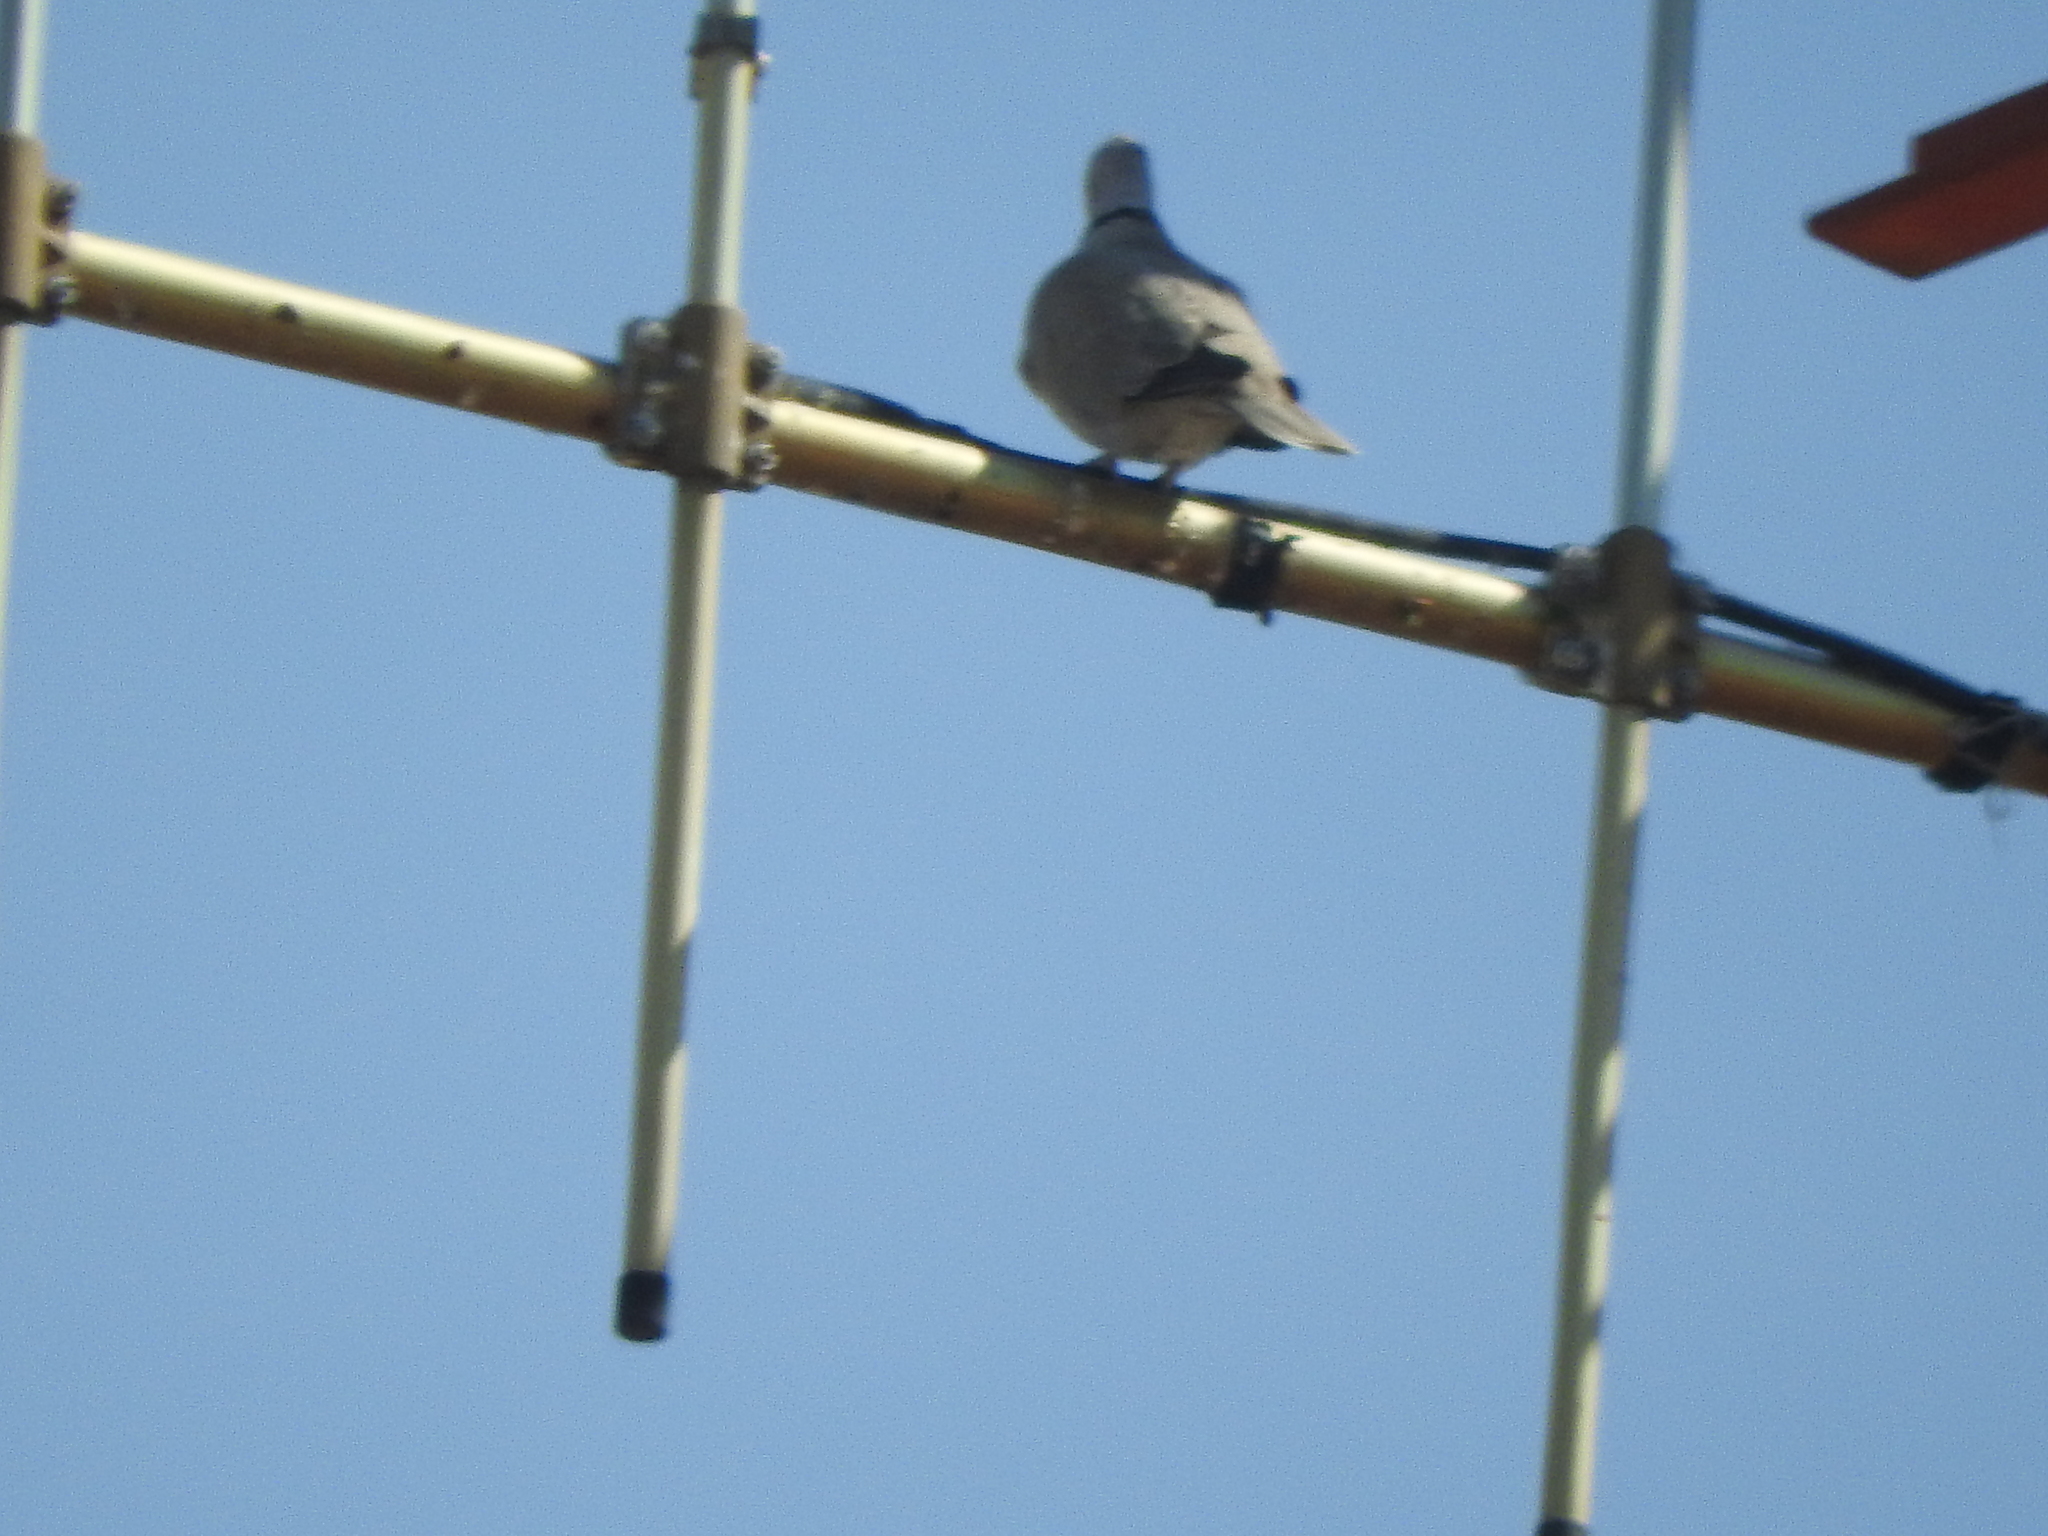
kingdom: Animalia
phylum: Chordata
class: Aves
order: Columbiformes
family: Columbidae
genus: Streptopelia
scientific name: Streptopelia decaocto
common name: Eurasian collared dove
